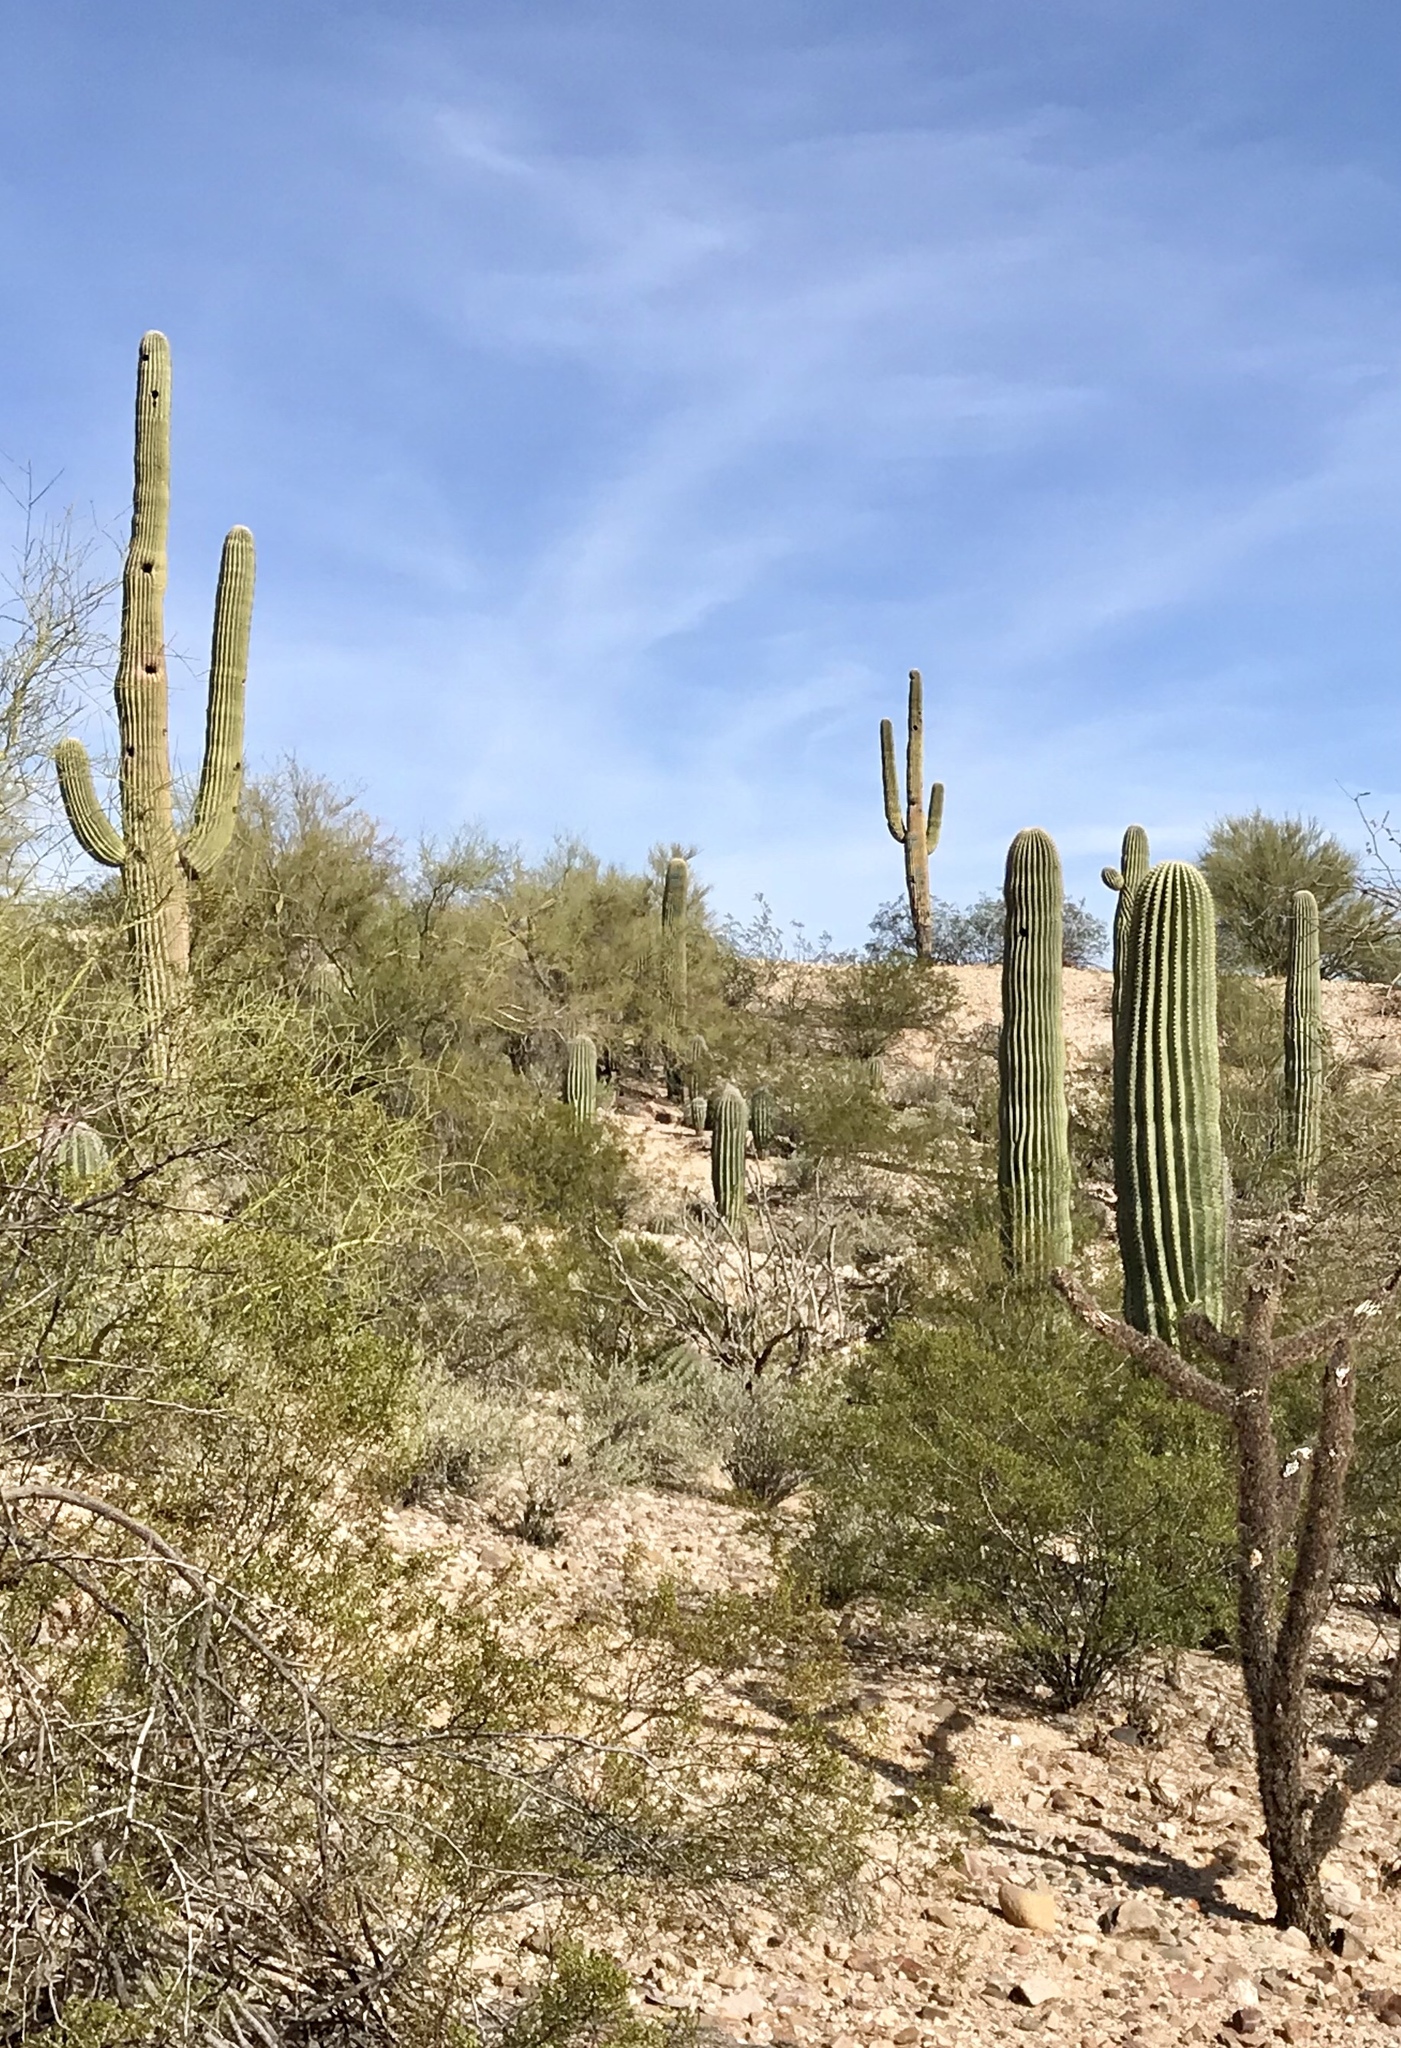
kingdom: Plantae
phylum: Tracheophyta
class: Magnoliopsida
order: Caryophyllales
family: Cactaceae
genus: Carnegiea
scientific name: Carnegiea gigantea
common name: Saguaro
